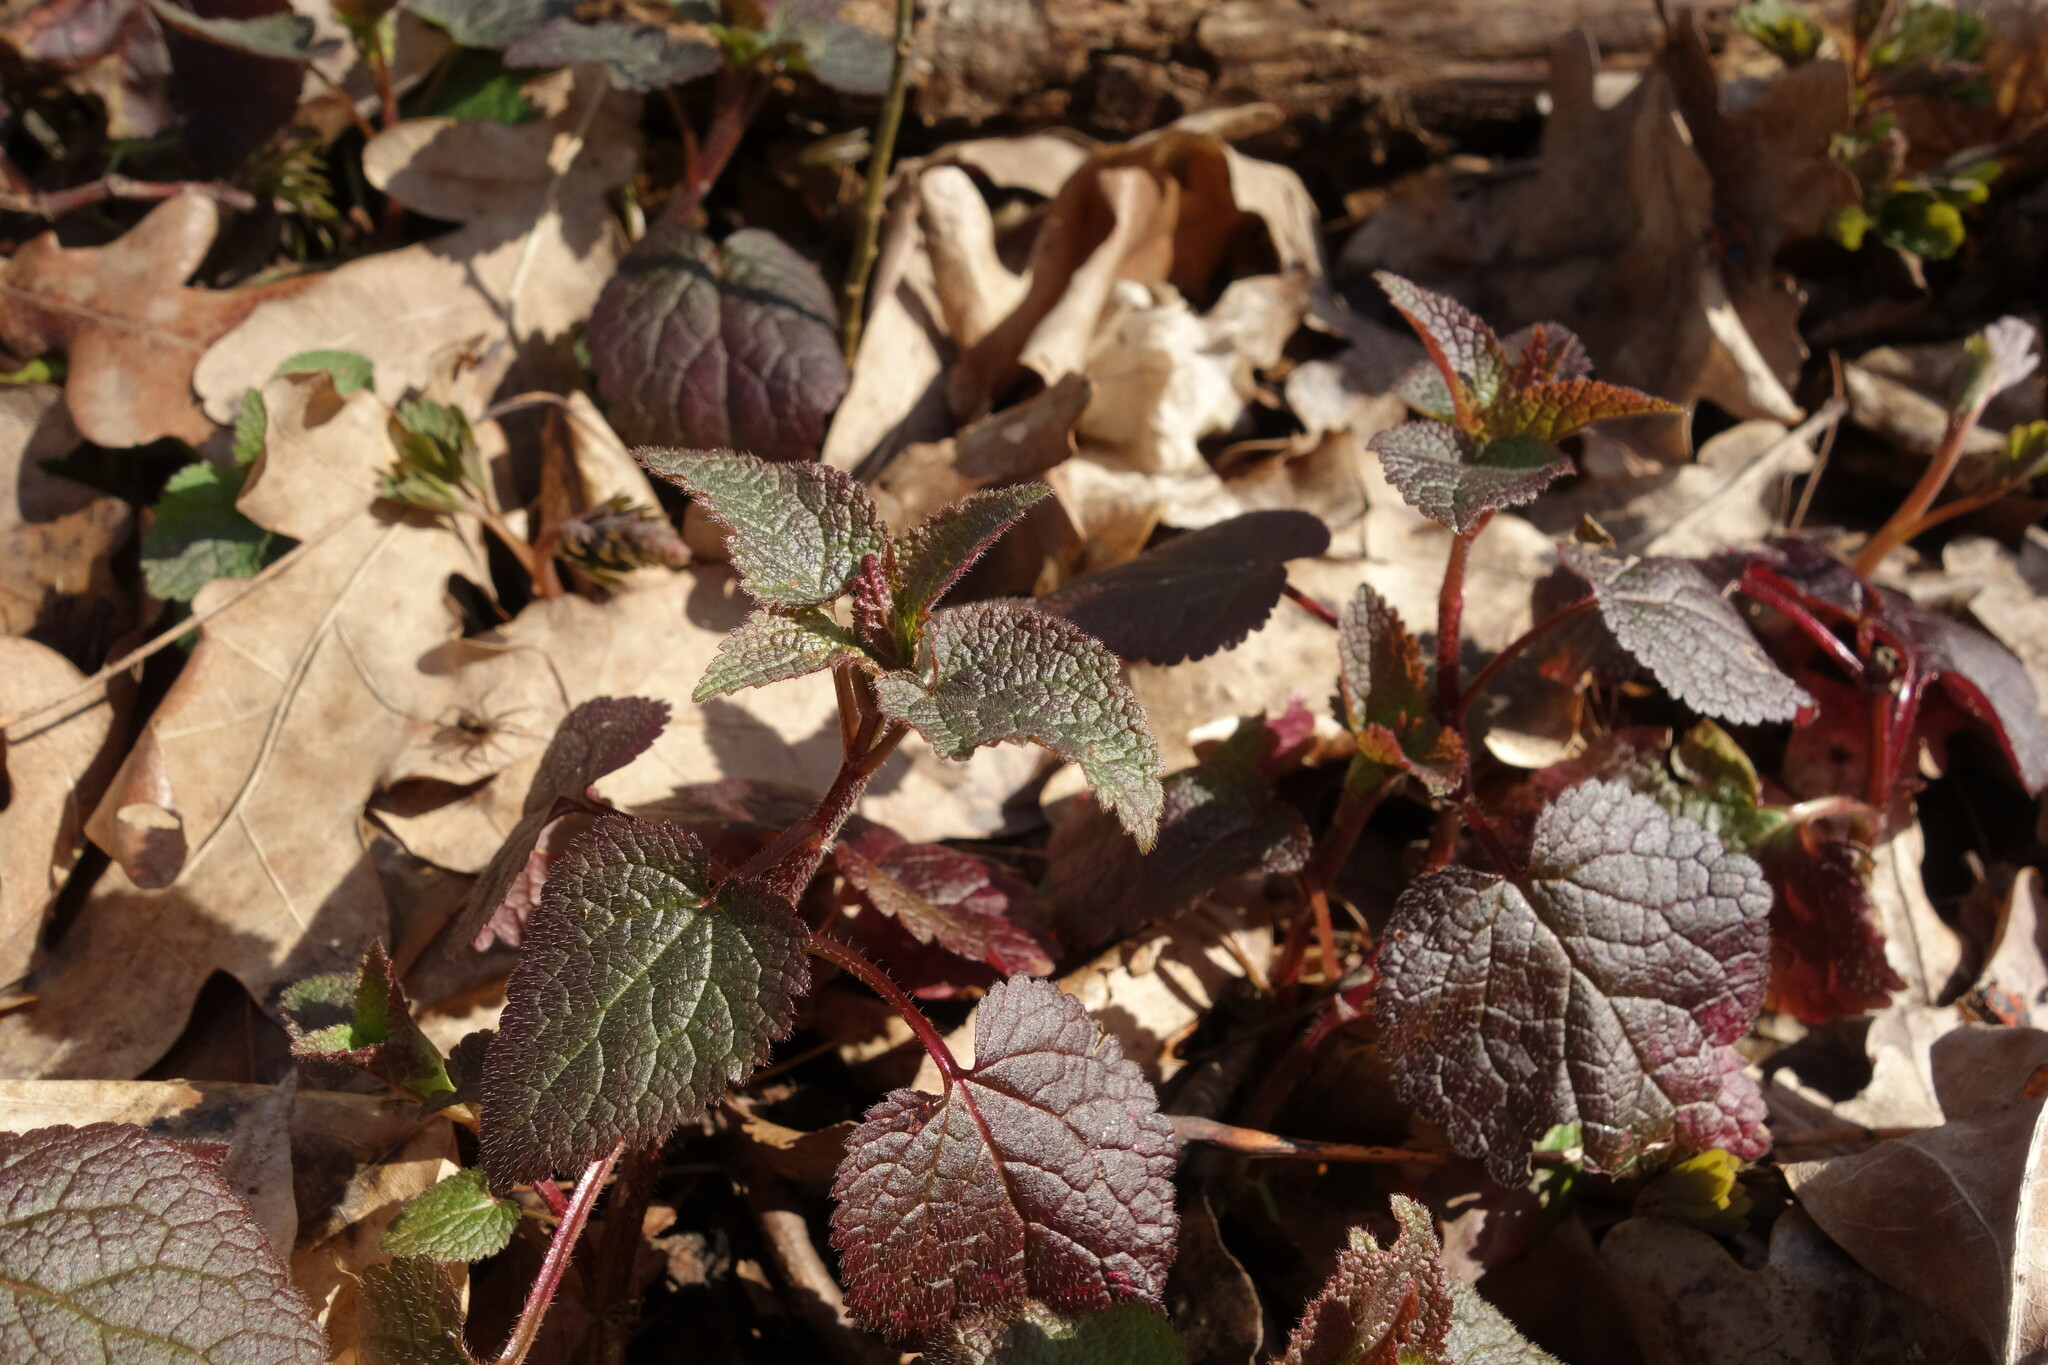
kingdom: Plantae
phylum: Tracheophyta
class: Magnoliopsida
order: Lamiales
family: Lamiaceae
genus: Lamium
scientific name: Lamium maculatum
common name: Spotted dead-nettle
